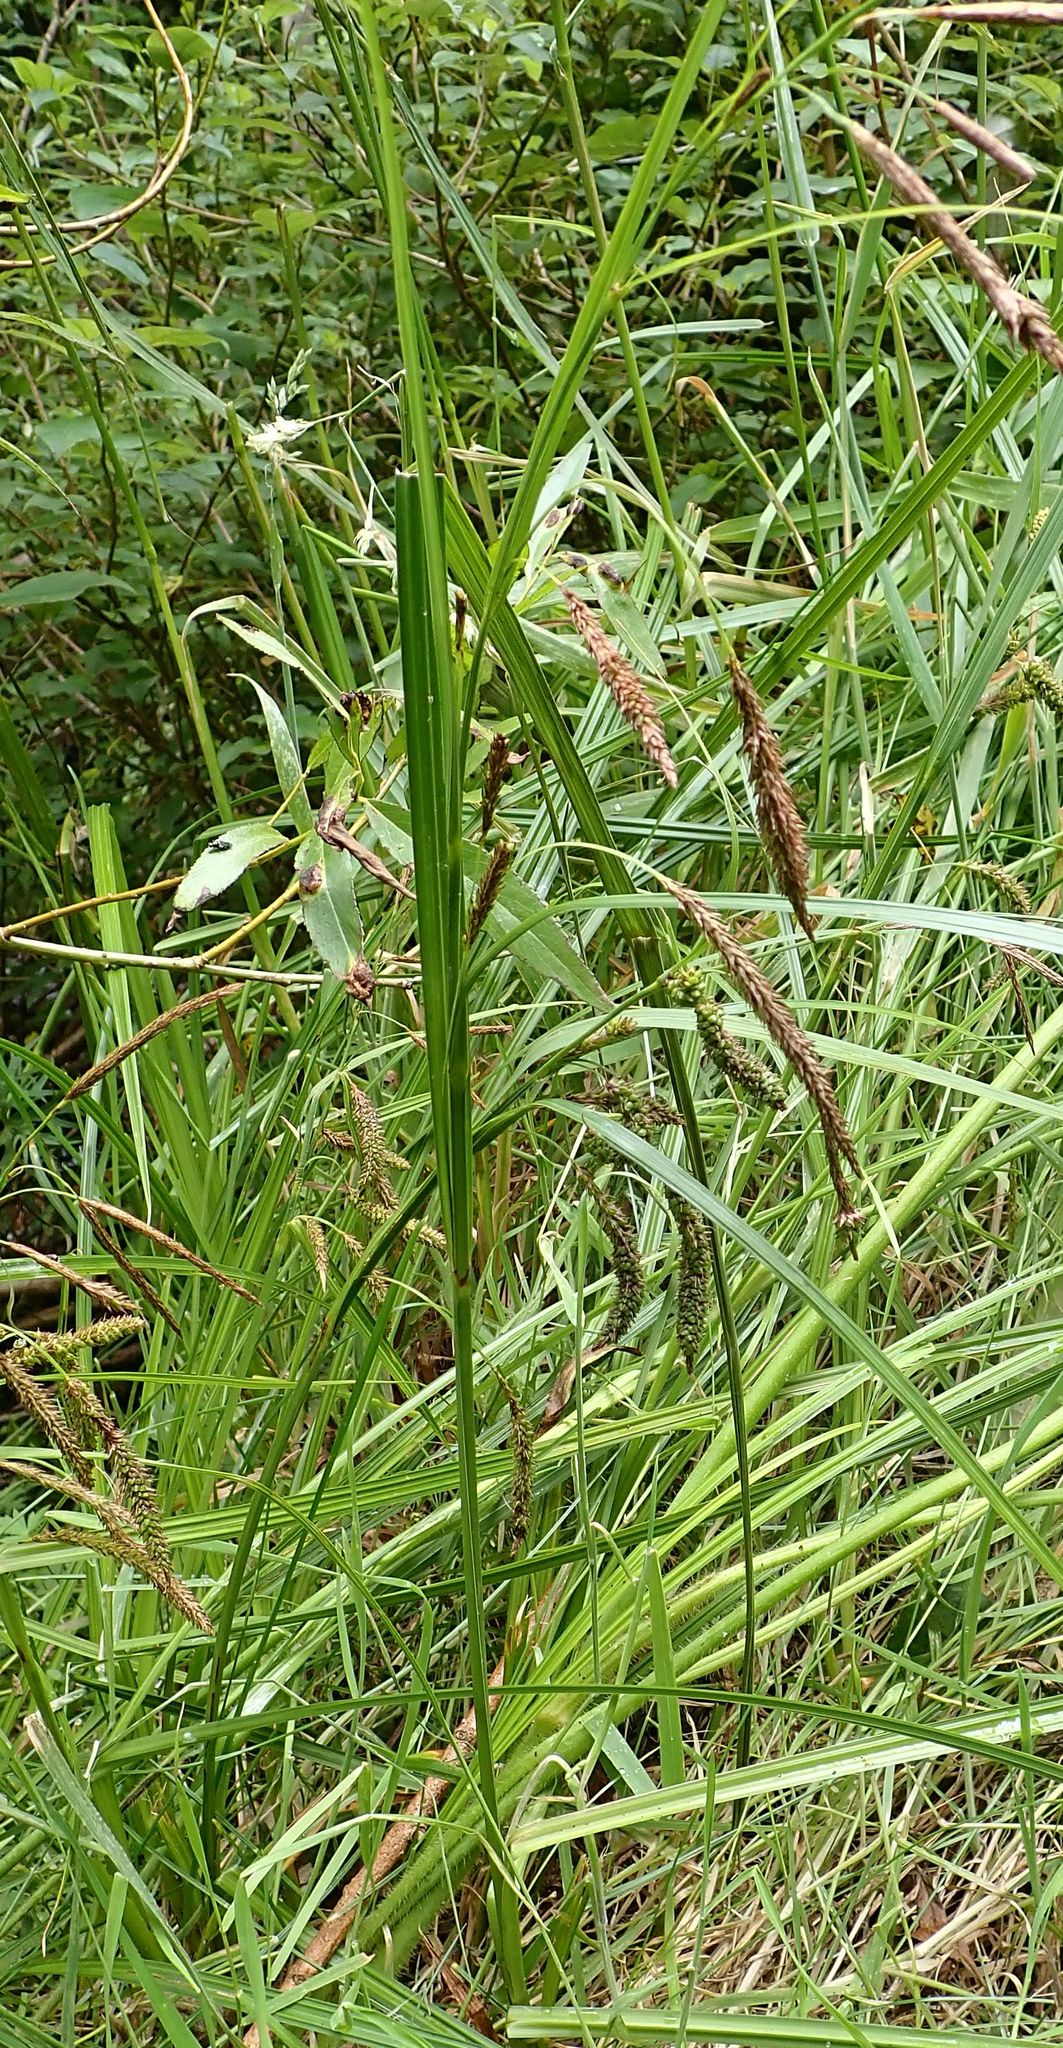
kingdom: Plantae
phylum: Tracheophyta
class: Liliopsida
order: Poales
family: Cyperaceae
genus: Carex
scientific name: Carex geminata
